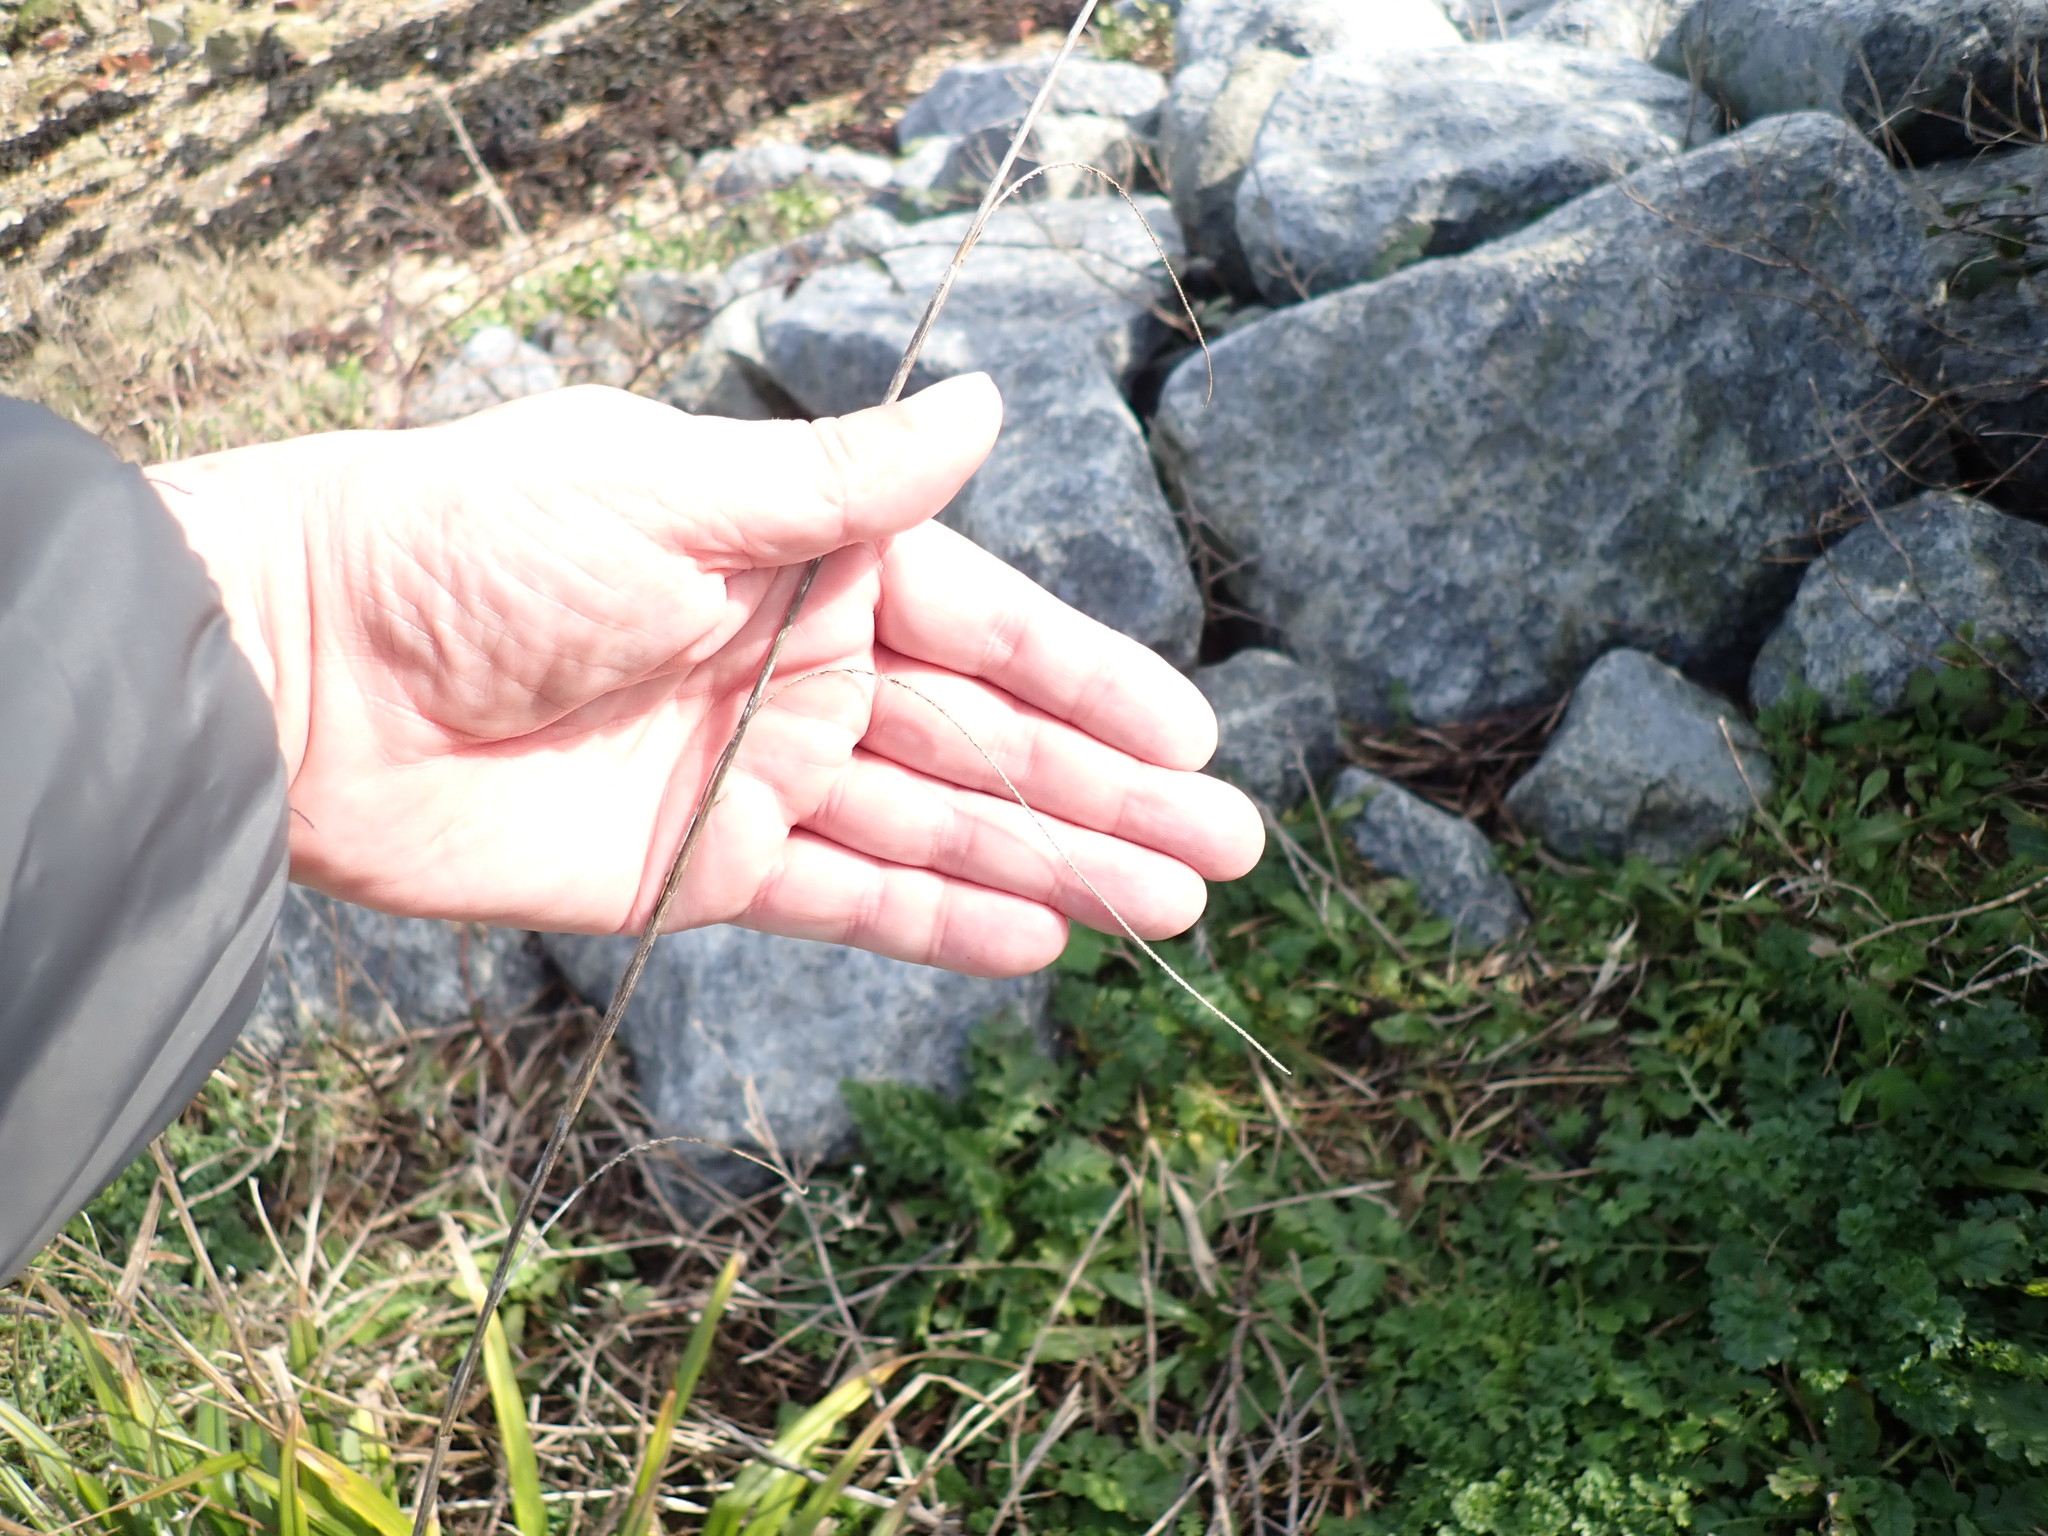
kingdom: Plantae
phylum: Tracheophyta
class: Liliopsida
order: Poales
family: Cyperaceae
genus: Carex
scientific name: Carex pendula
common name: Pendulous sedge
